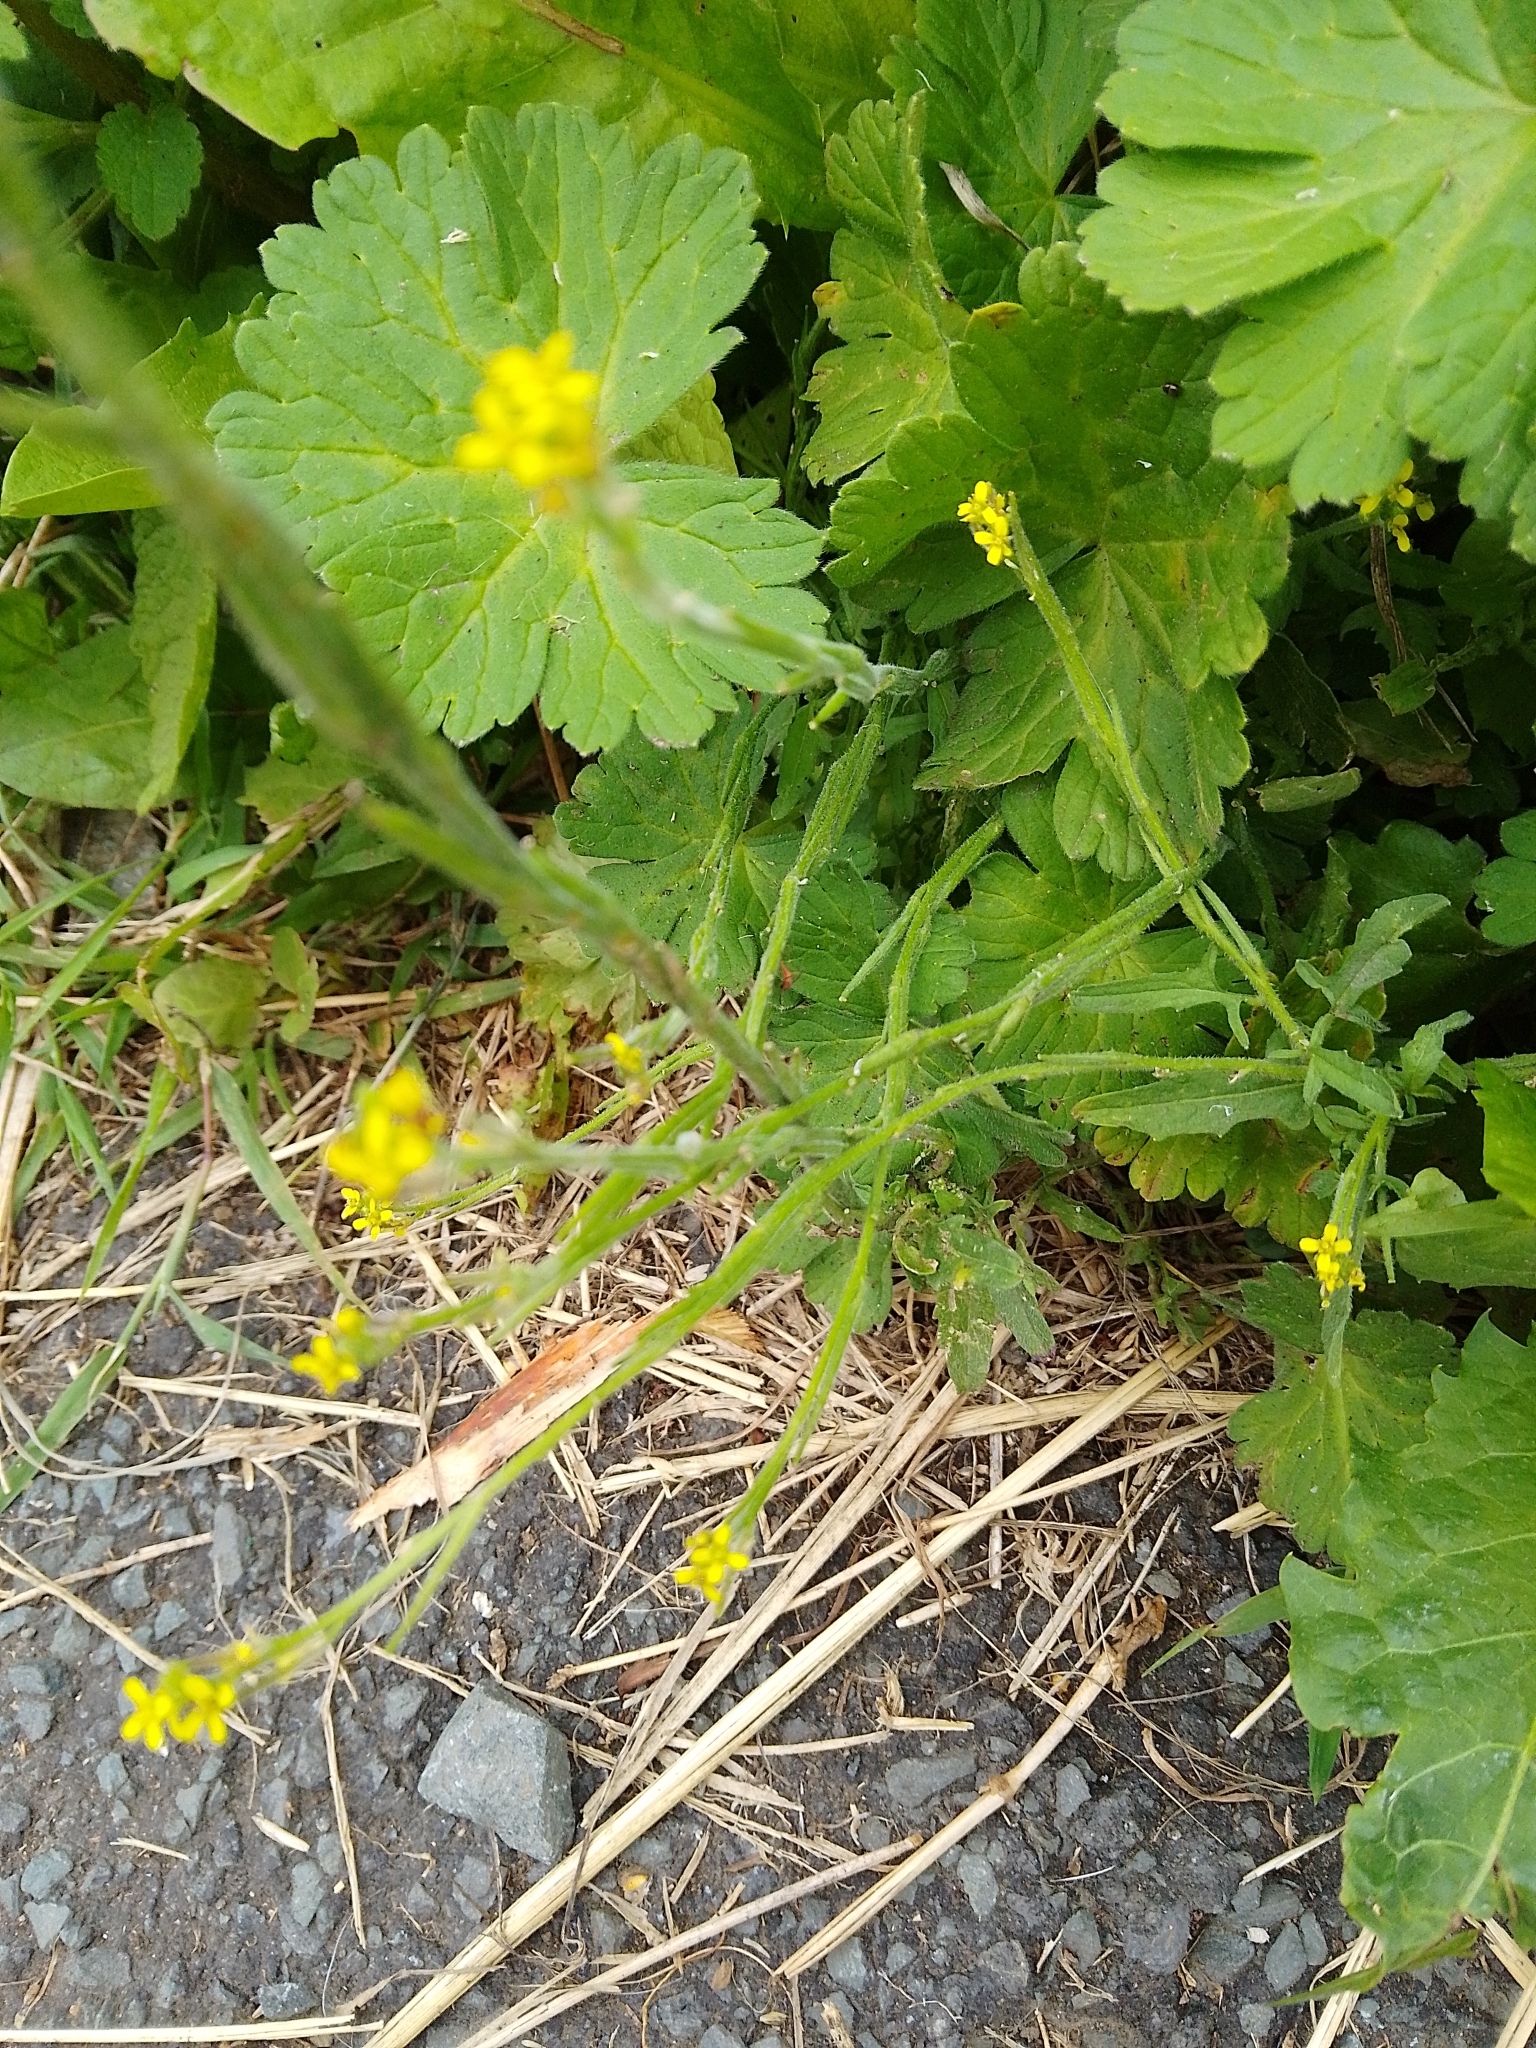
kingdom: Plantae
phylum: Tracheophyta
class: Magnoliopsida
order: Brassicales
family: Brassicaceae
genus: Sisymbrium
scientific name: Sisymbrium officinale
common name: Hedge mustard
